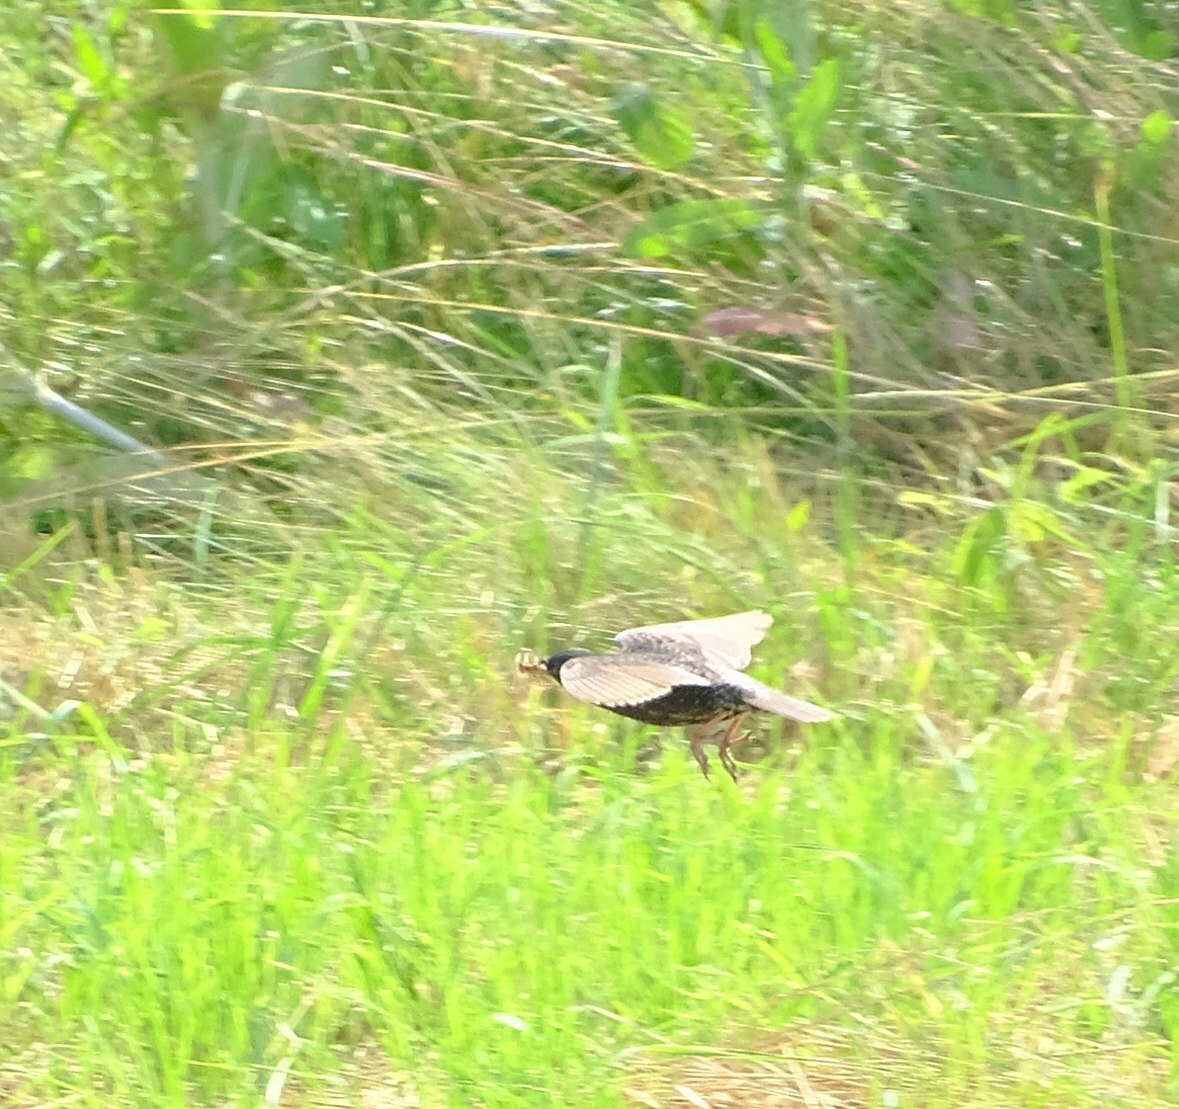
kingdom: Animalia
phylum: Chordata
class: Aves
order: Passeriformes
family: Sturnidae
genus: Sturnus
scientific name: Sturnus vulgaris
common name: Common starling
